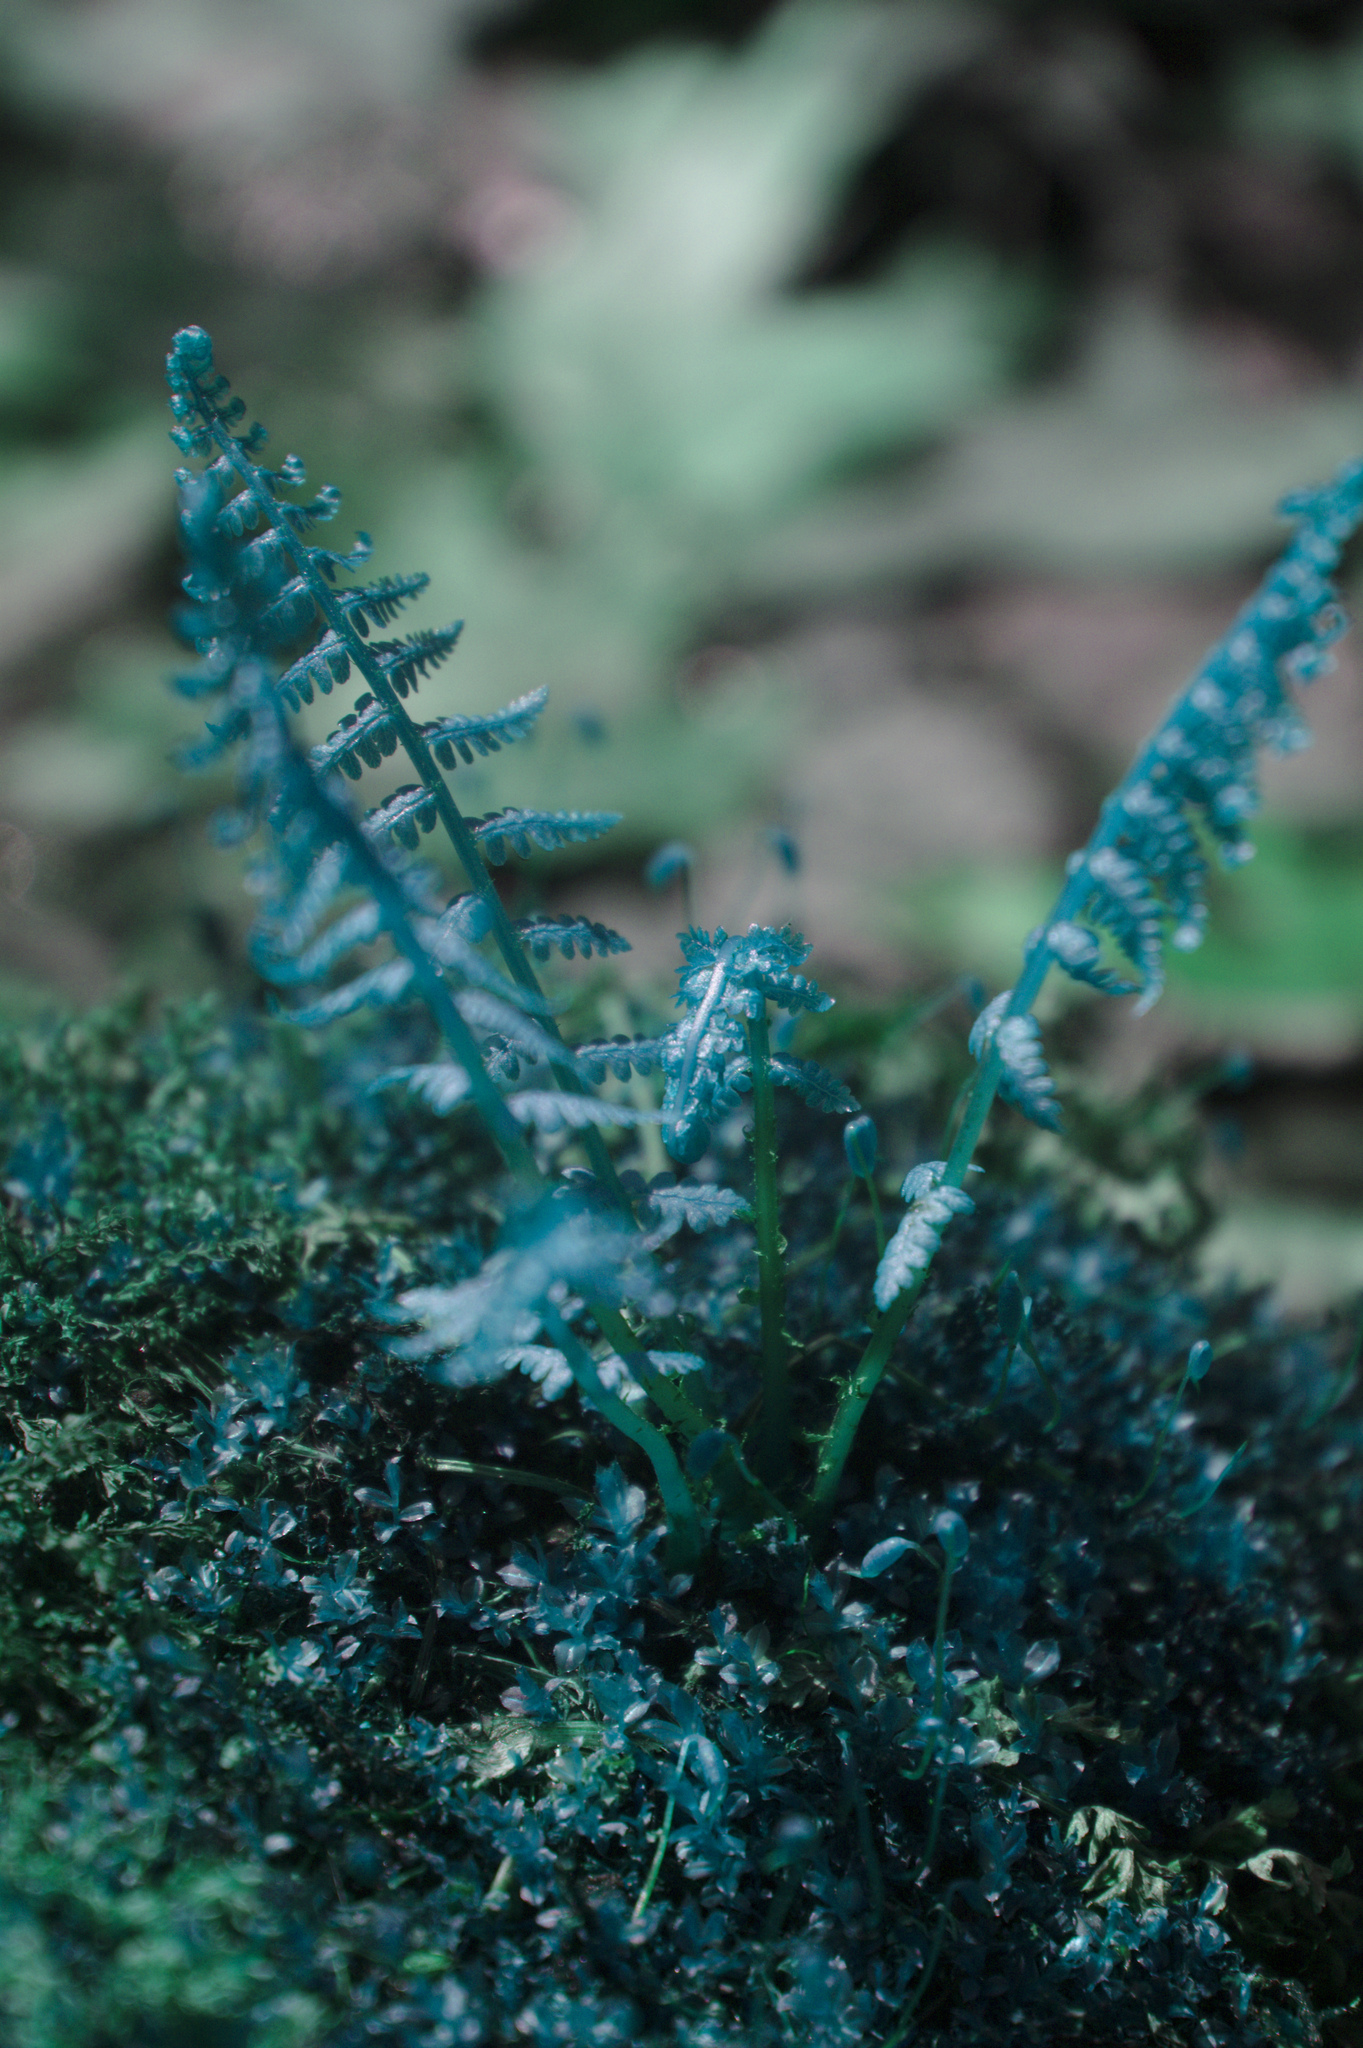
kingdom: Plantae
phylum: Tracheophyta
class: Polypodiopsida
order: Polypodiales
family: Athyriaceae
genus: Athyrium
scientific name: Athyrium angustum
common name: Northern lady fern
